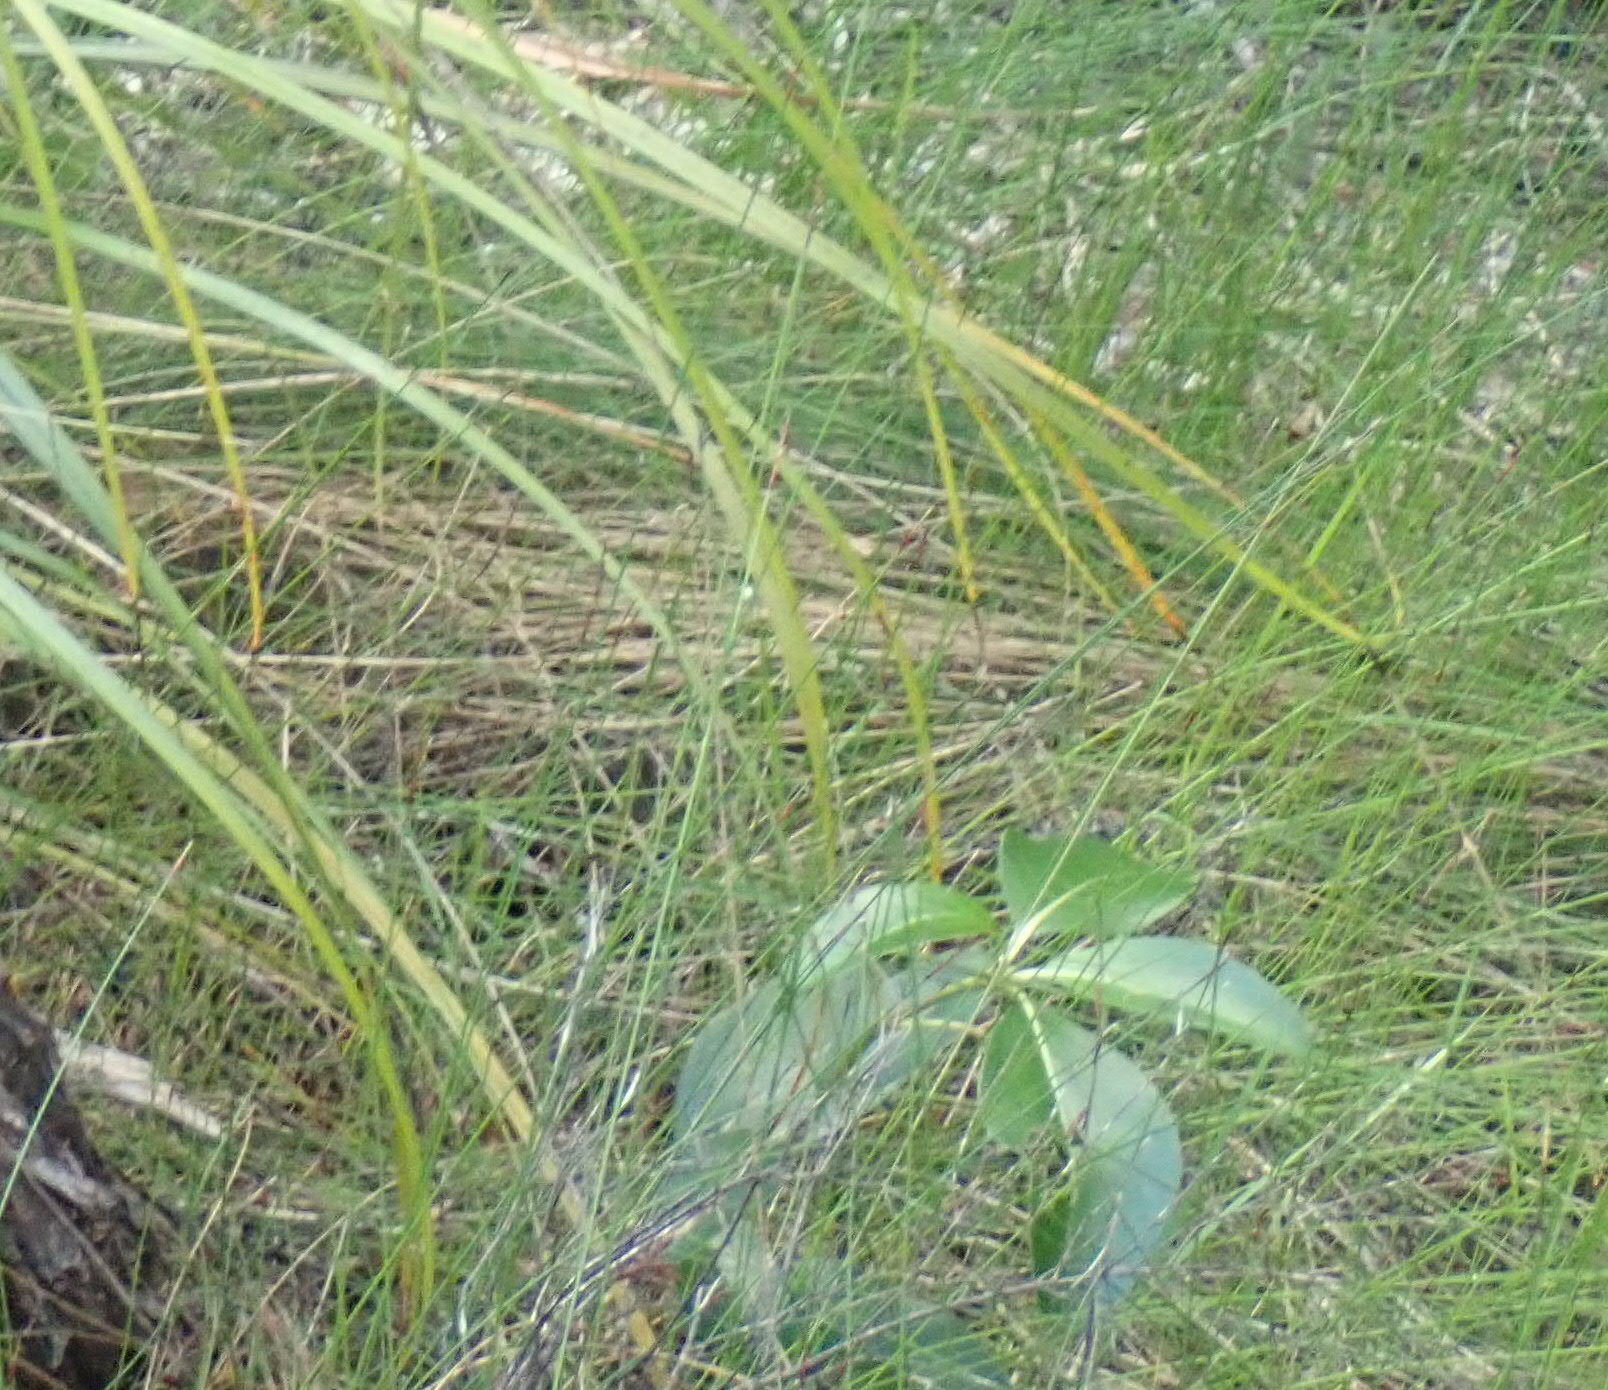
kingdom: Plantae
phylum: Tracheophyta
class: Magnoliopsida
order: Gentianales
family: Rubiaceae
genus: Coprosma
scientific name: Coprosma lucida
